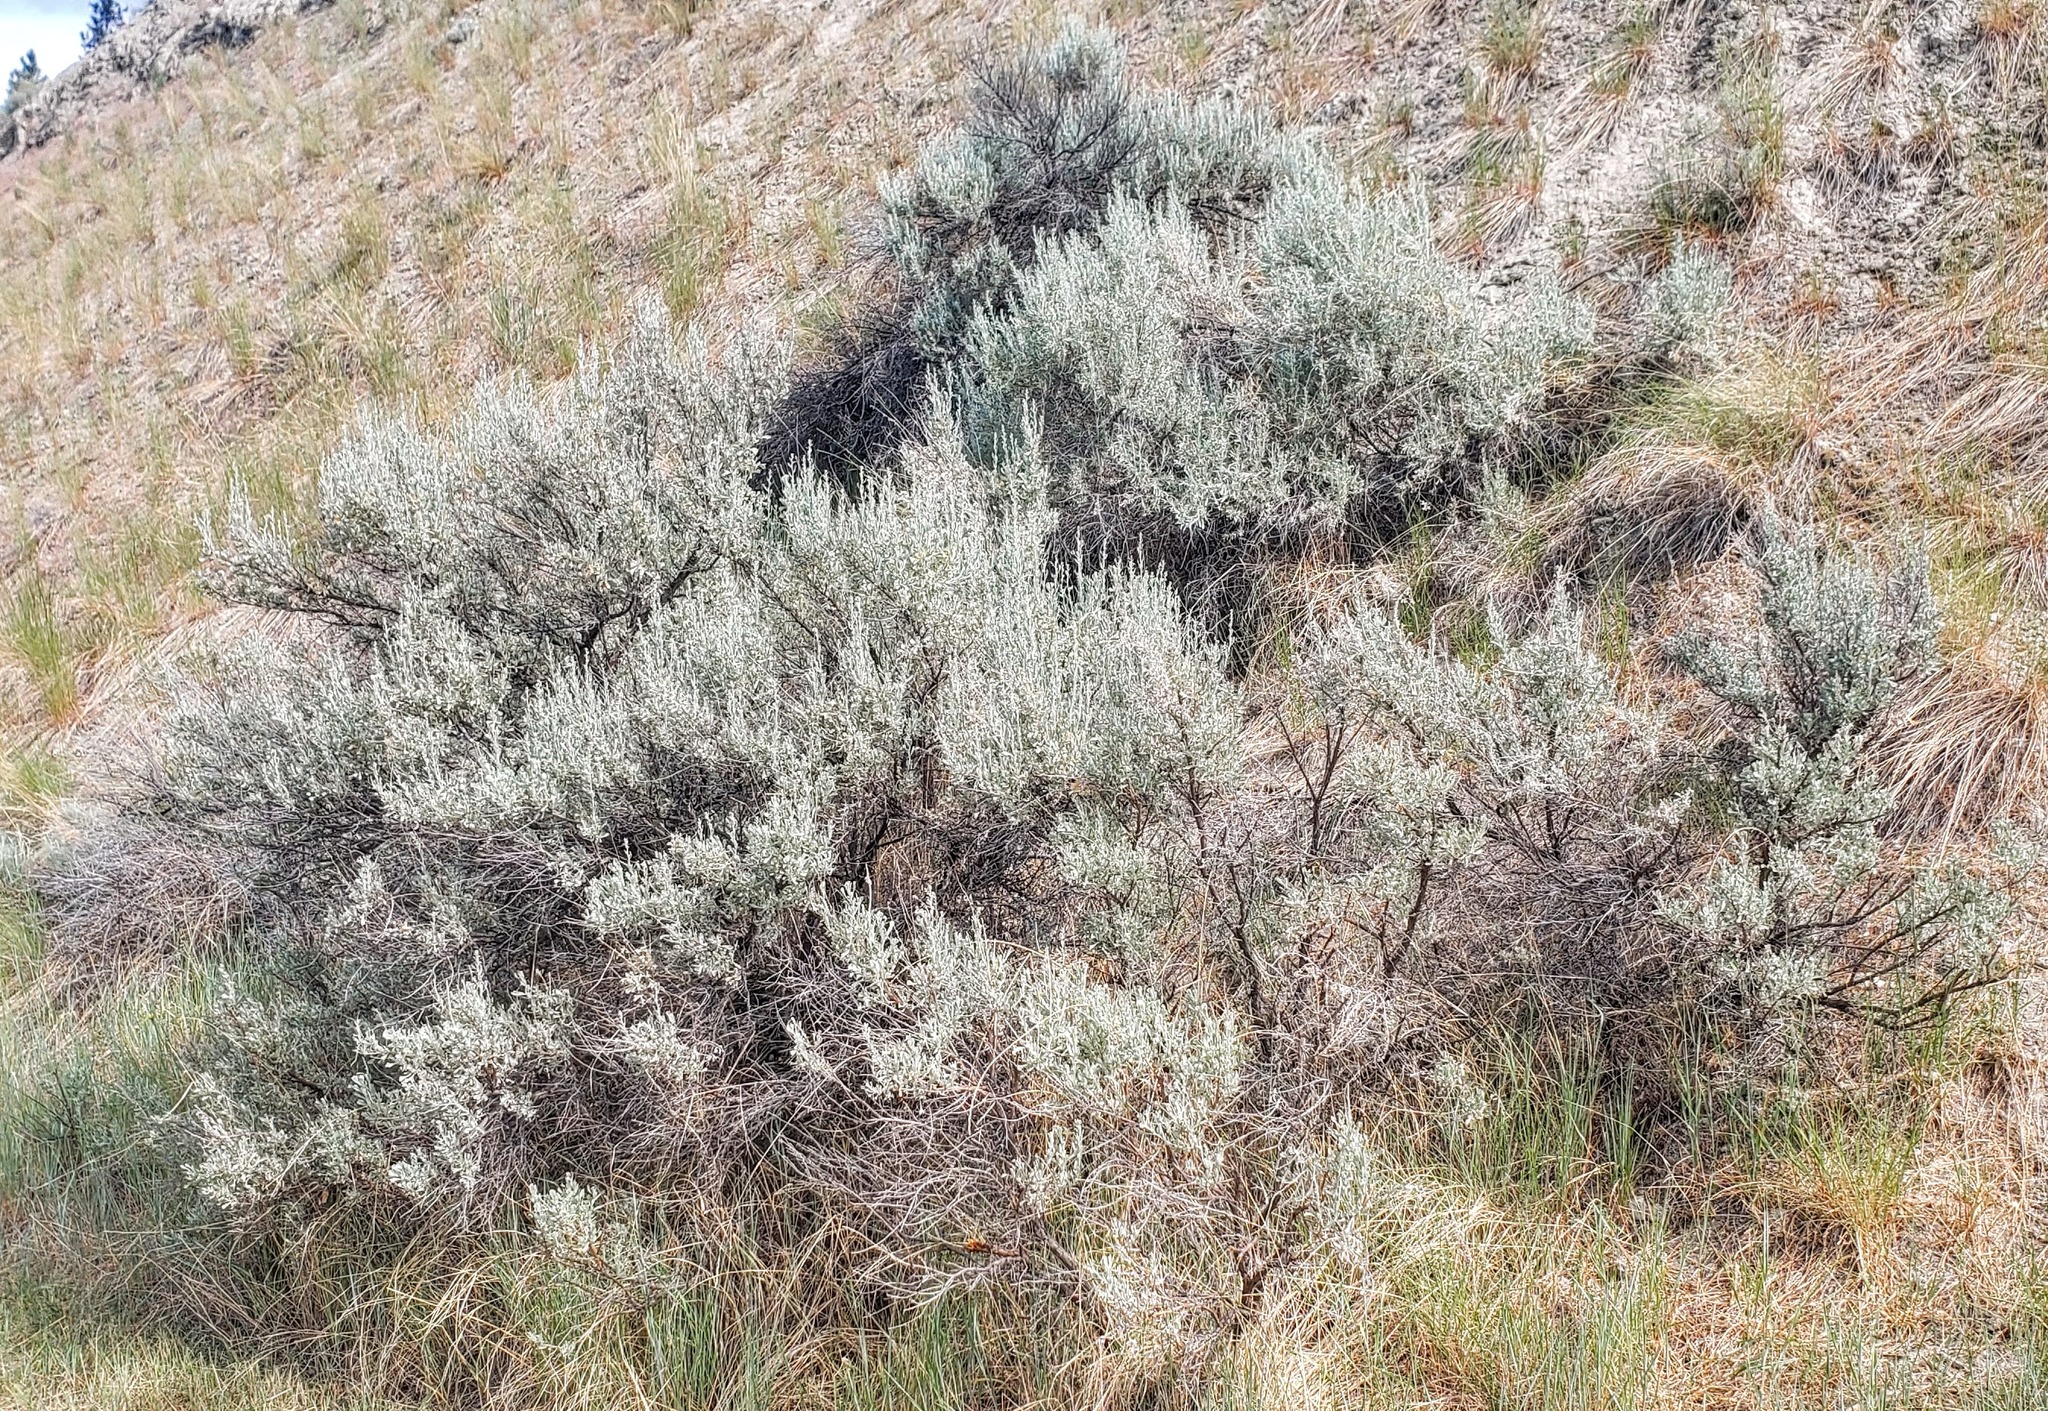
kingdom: Plantae
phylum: Tracheophyta
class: Magnoliopsida
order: Asterales
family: Asteraceae
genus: Artemisia
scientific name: Artemisia tridentata
